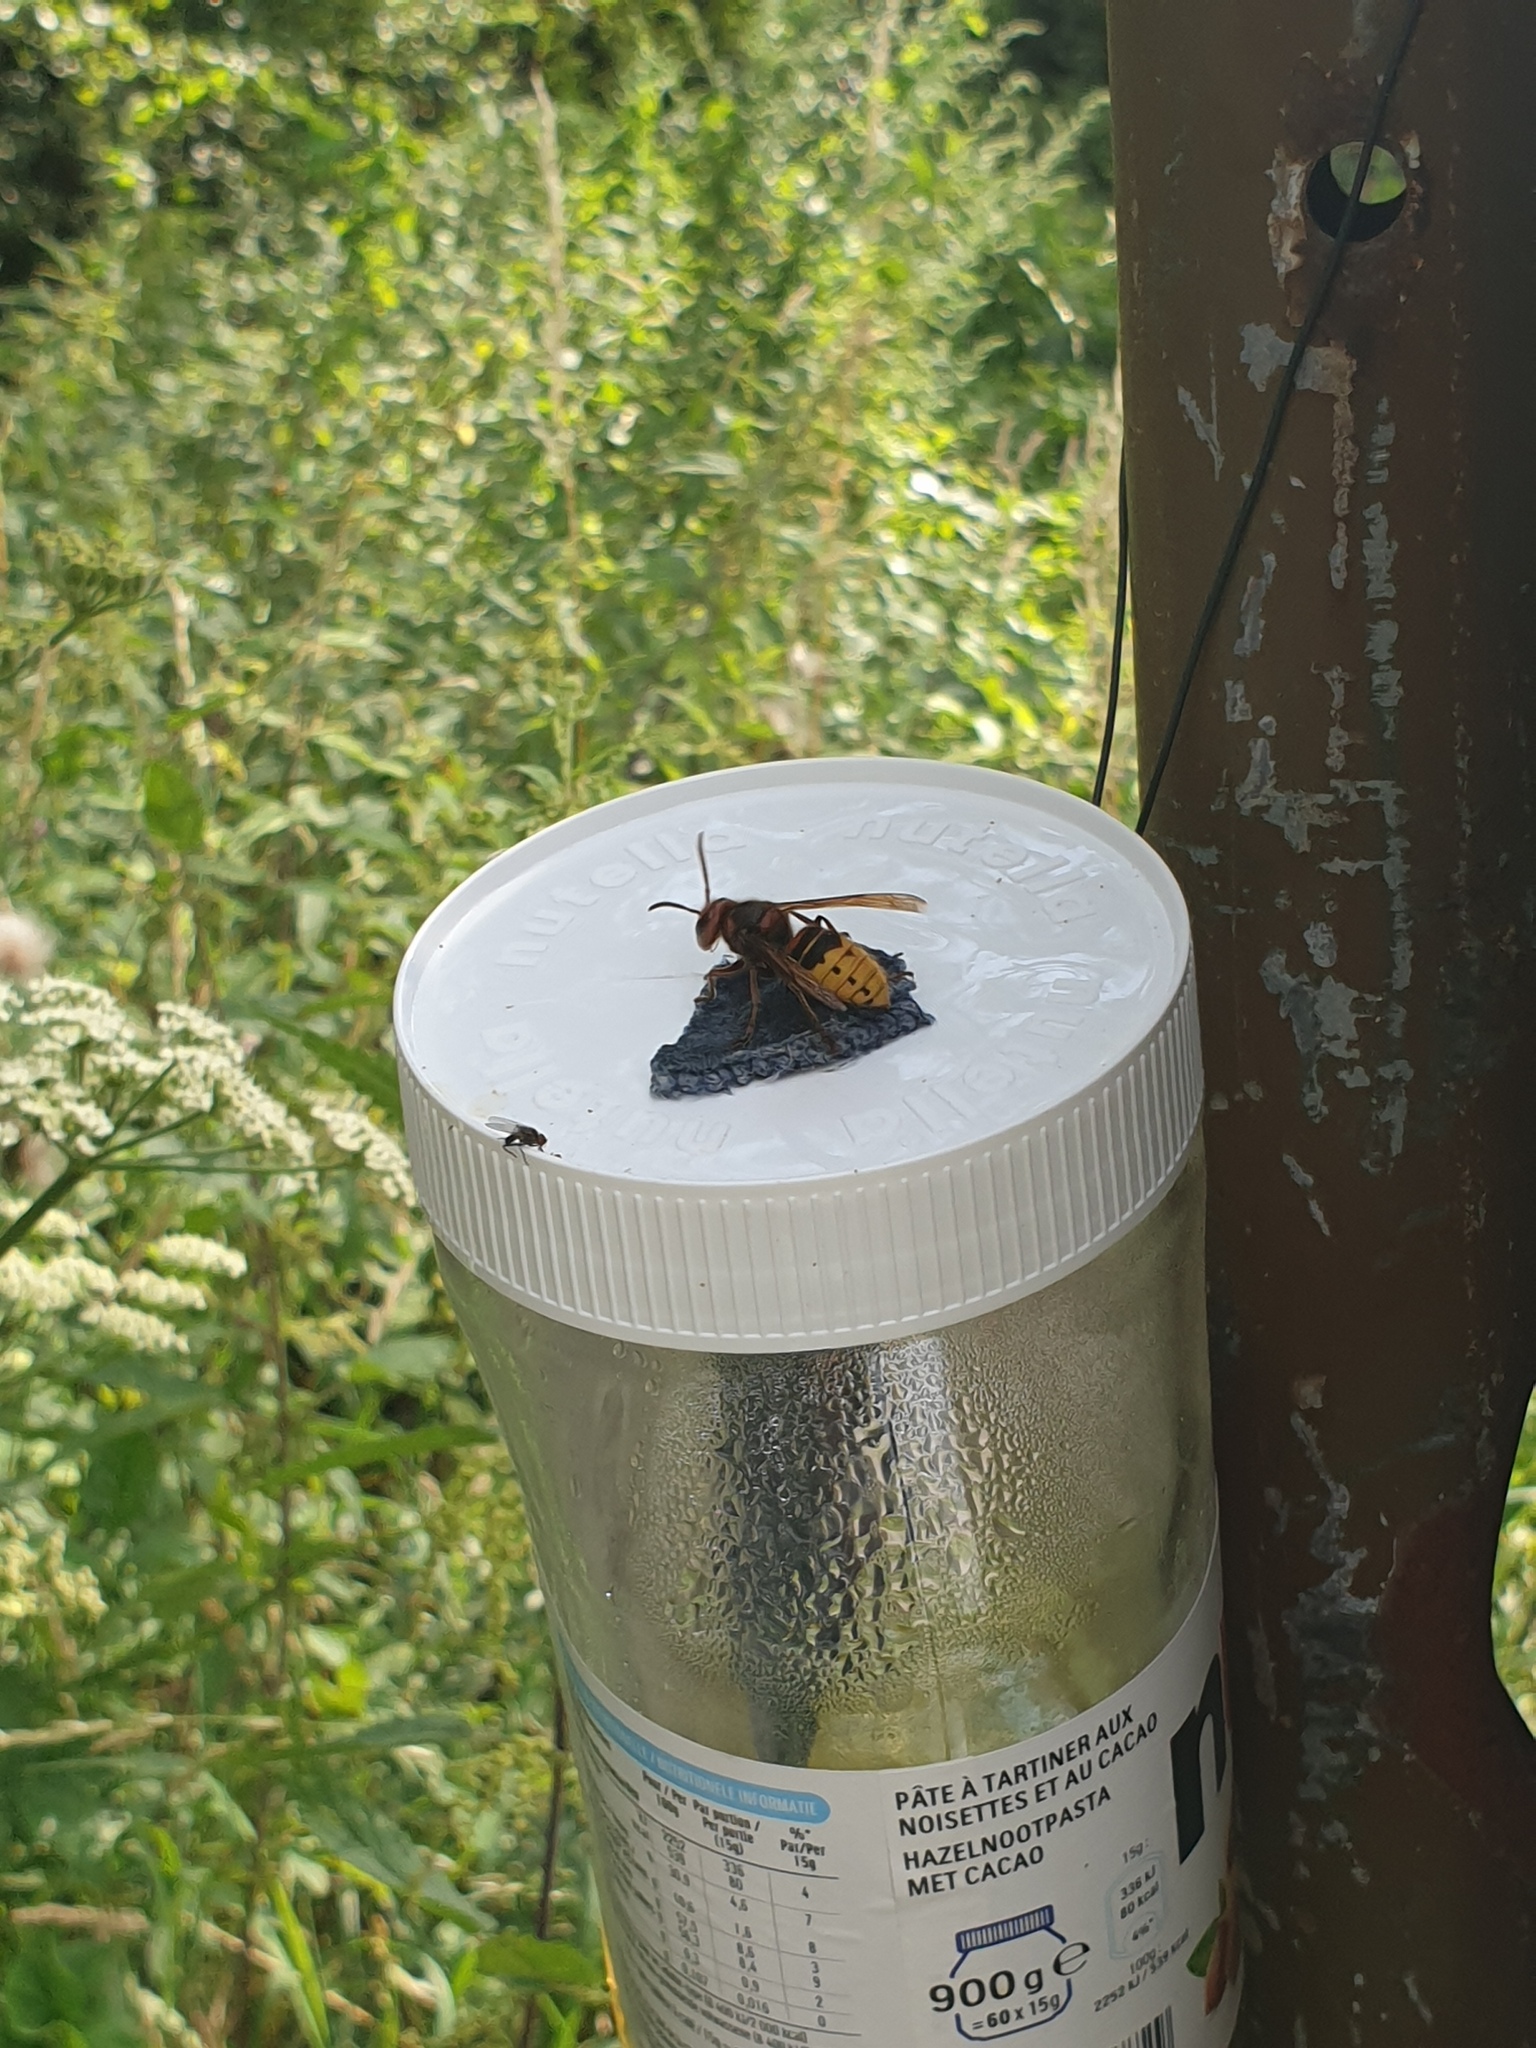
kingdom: Animalia
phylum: Arthropoda
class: Insecta
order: Hymenoptera
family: Vespidae
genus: Vespa
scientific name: Vespa crabro
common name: Hornet
